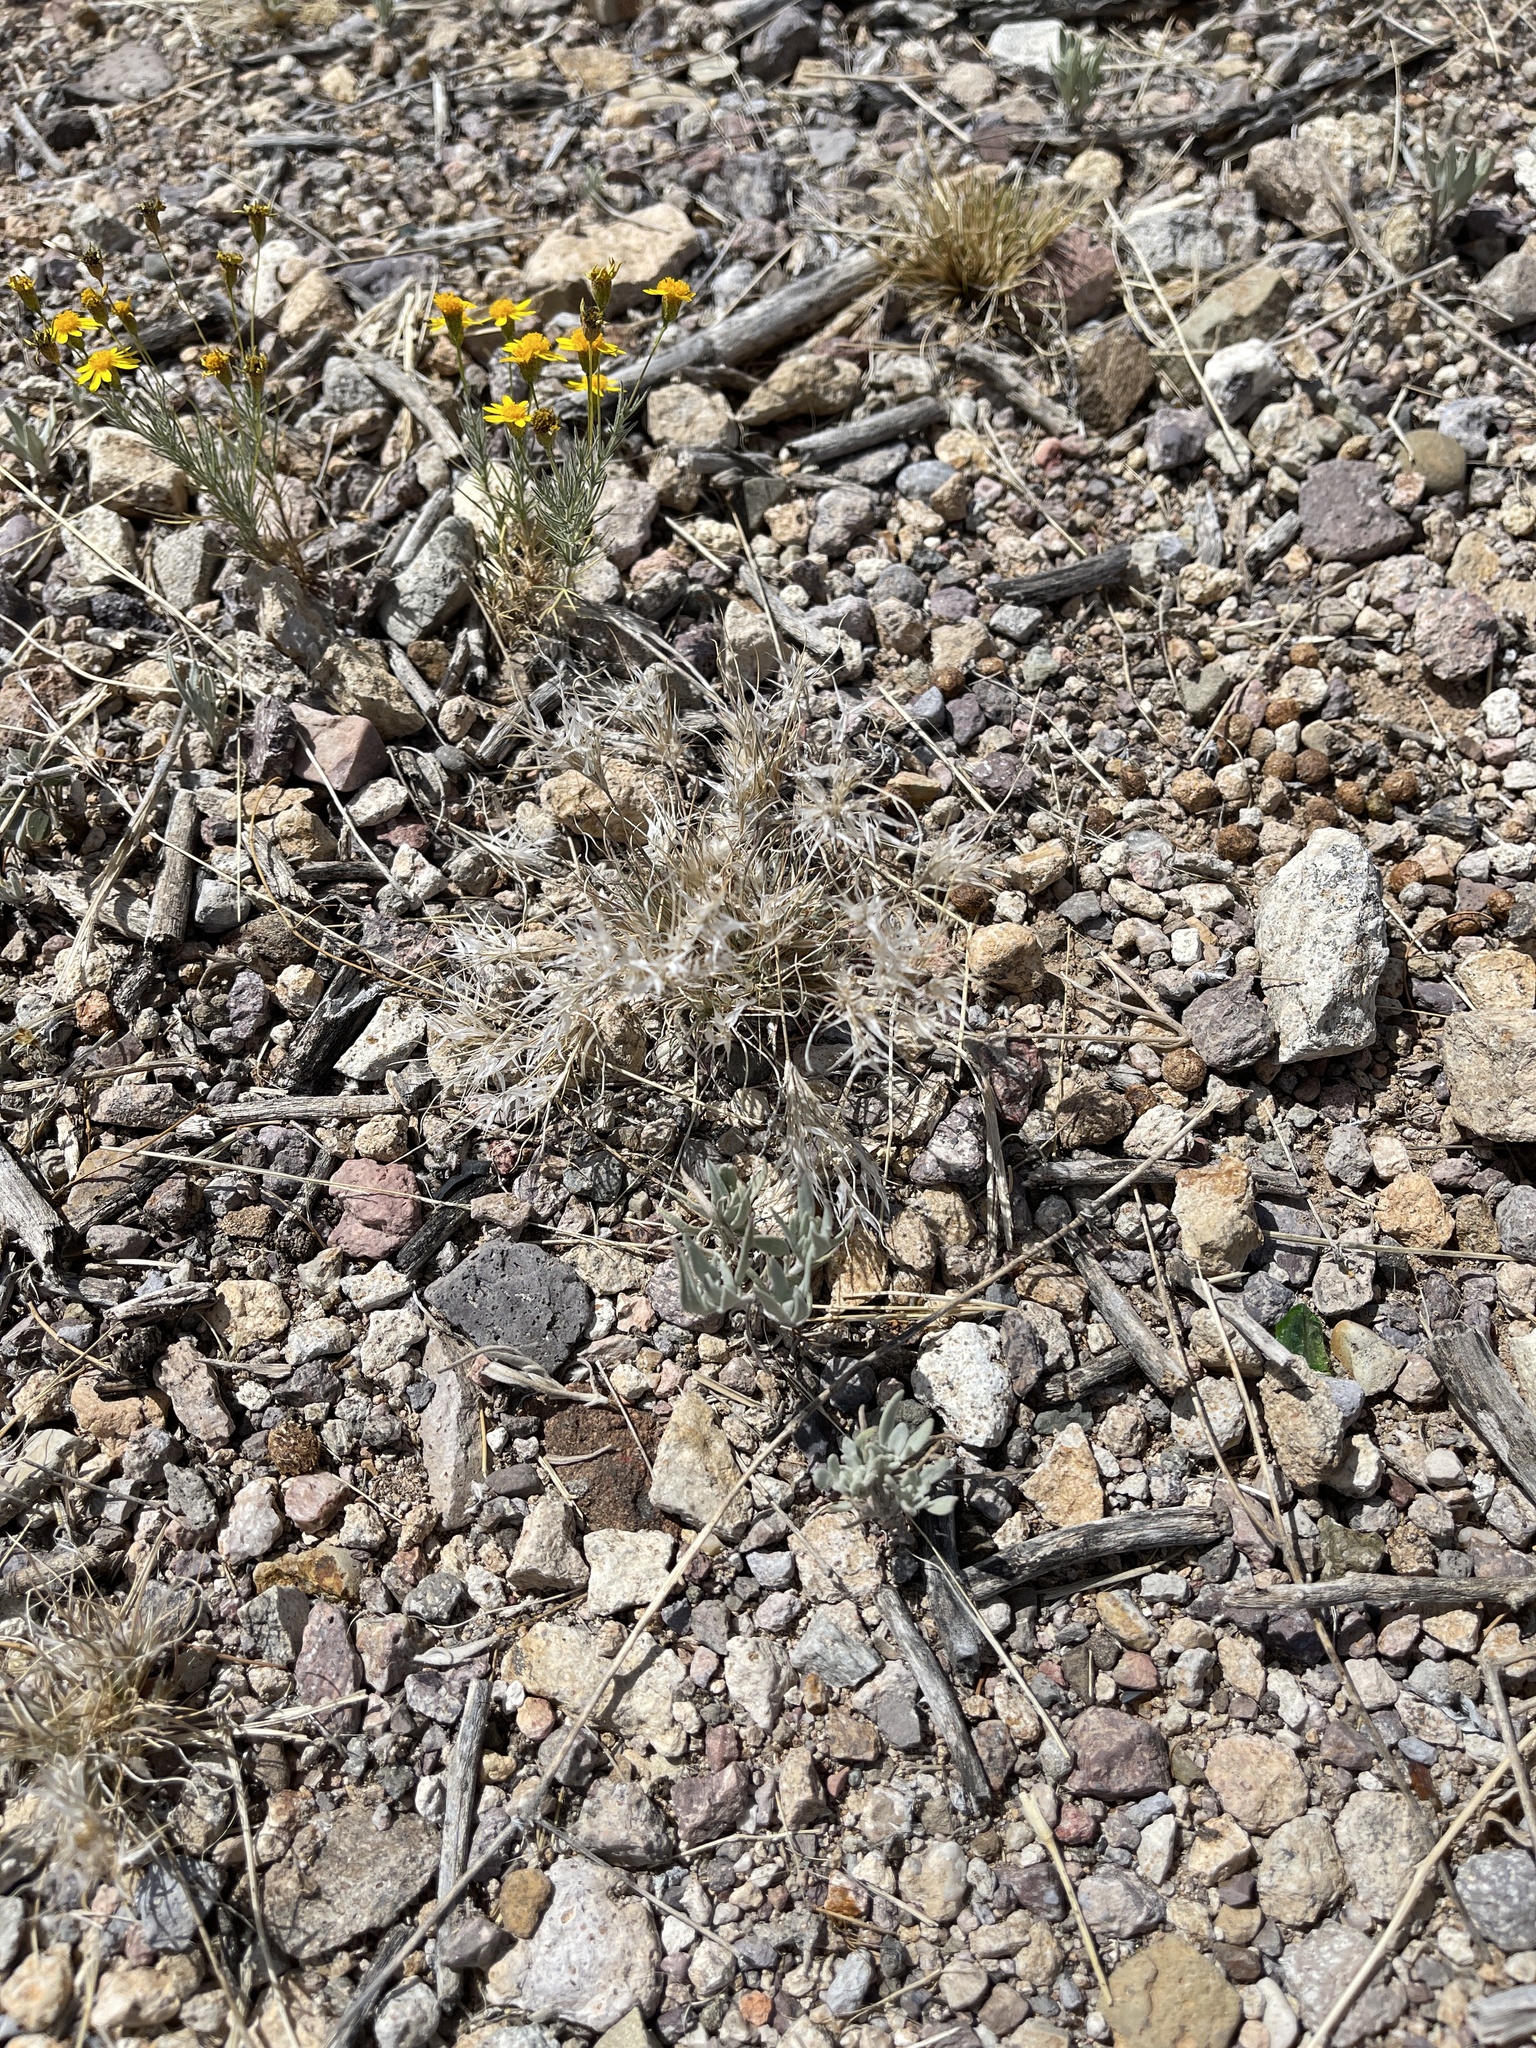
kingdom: Plantae
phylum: Tracheophyta
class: Liliopsida
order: Poales
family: Poaceae
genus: Dasyochloa
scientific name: Dasyochloa pulchella
